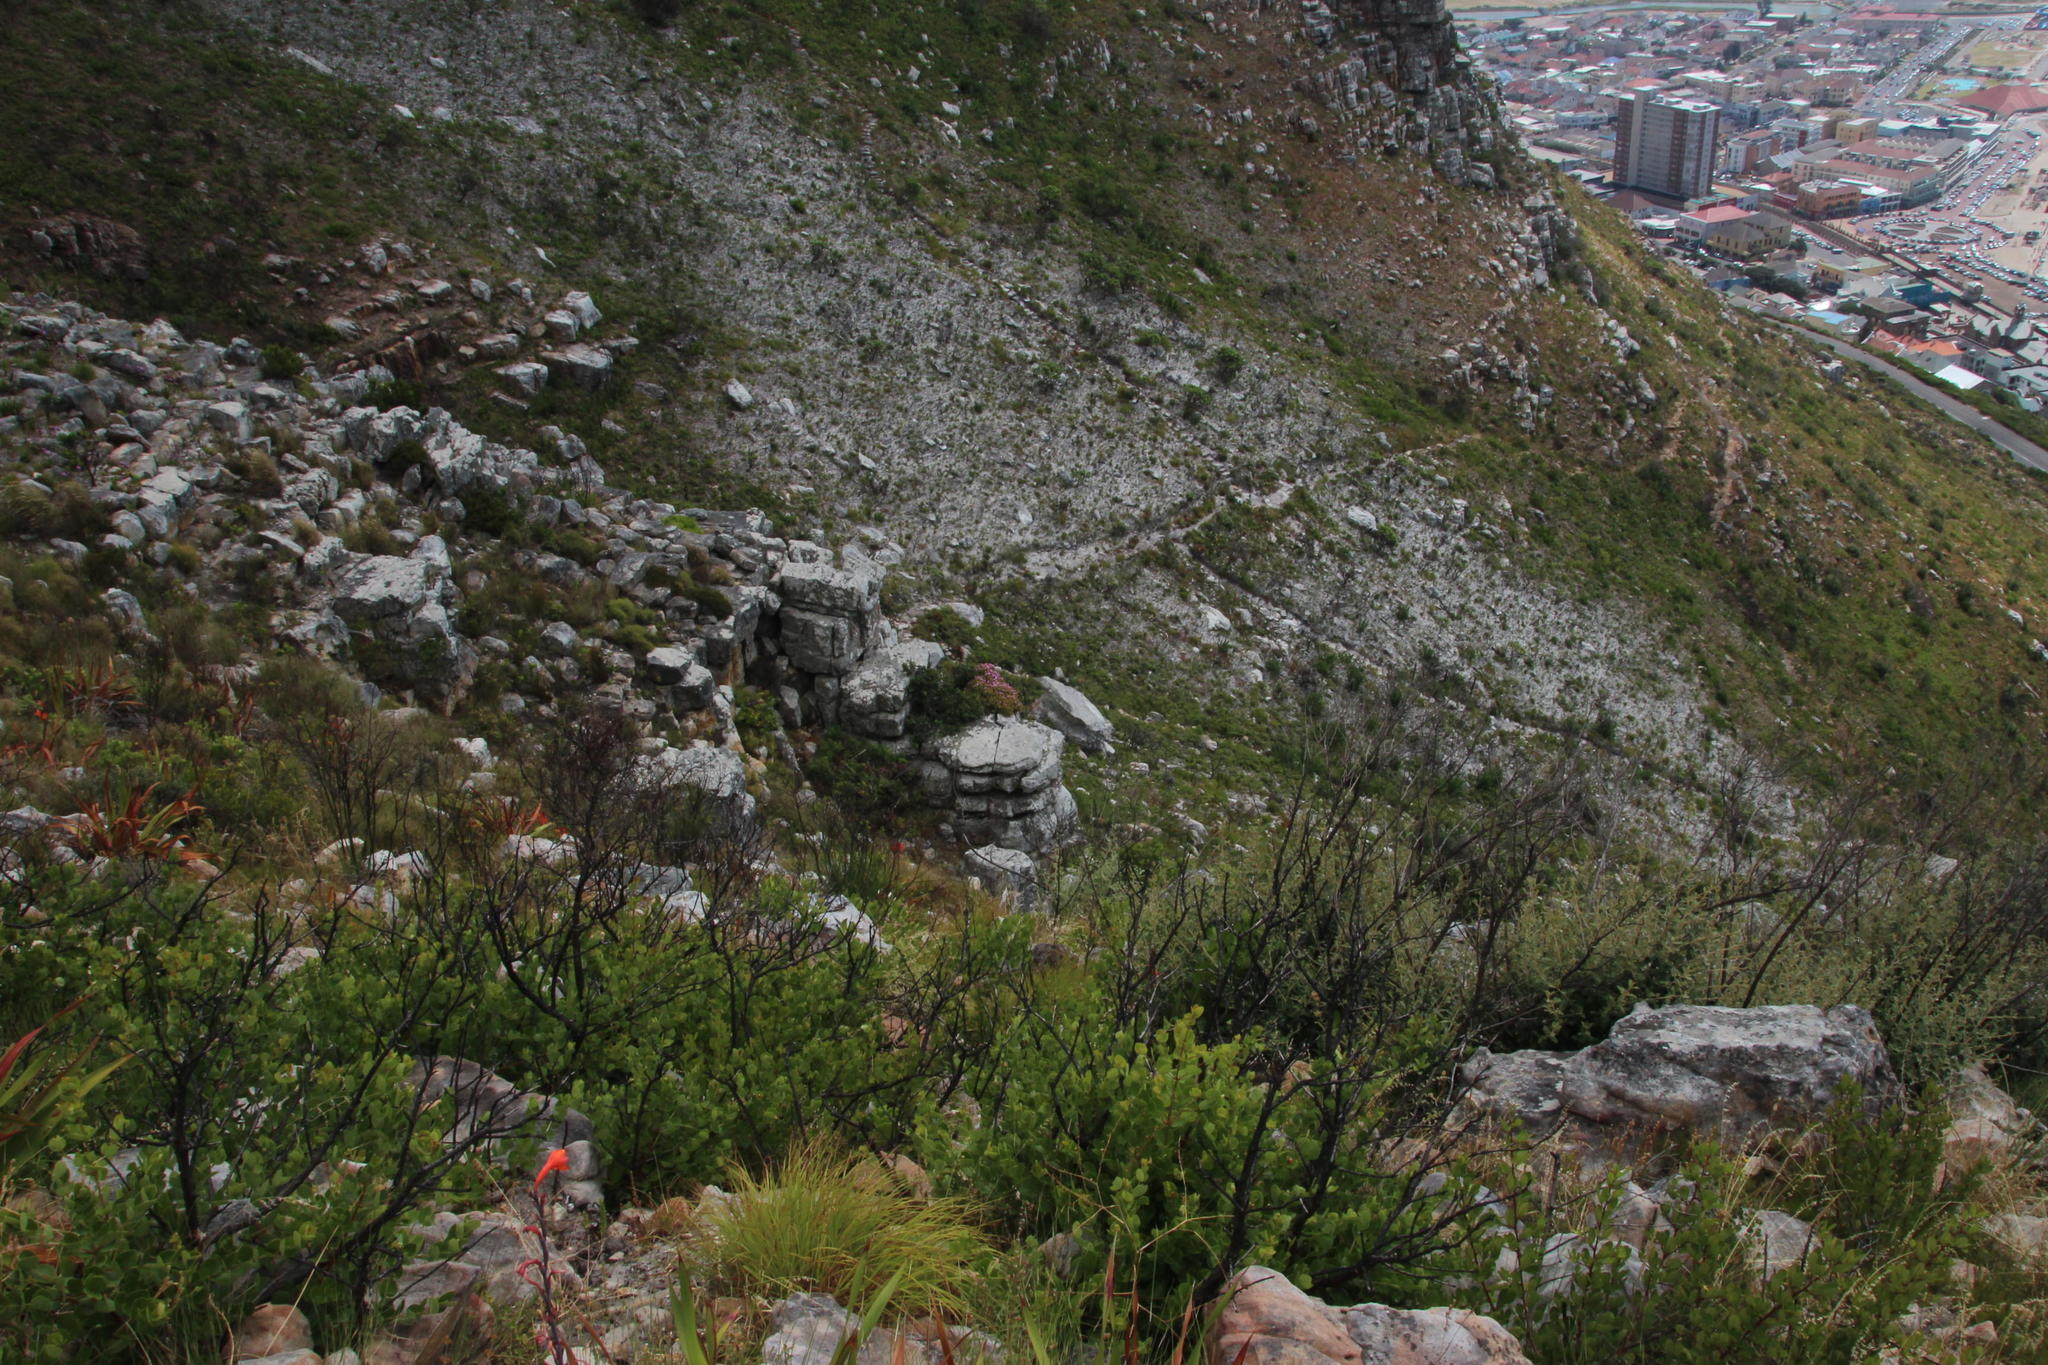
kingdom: Plantae
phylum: Tracheophyta
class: Magnoliopsida
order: Caryophyllales
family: Aizoaceae
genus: Oscularia
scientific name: Oscularia falciformis
